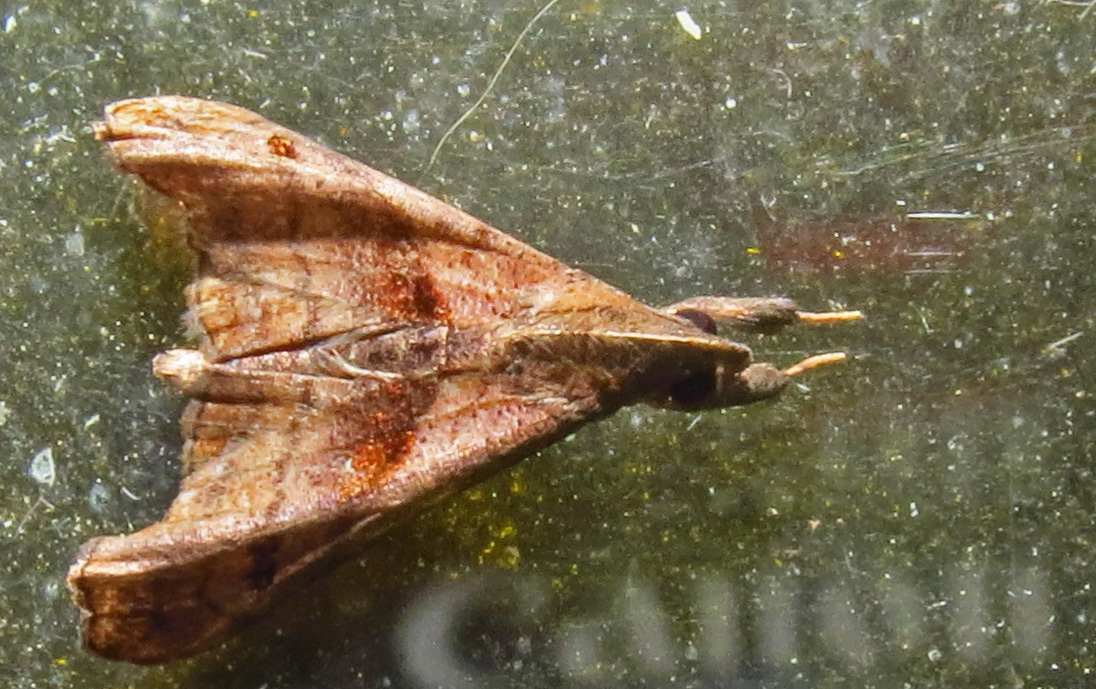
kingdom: Animalia
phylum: Arthropoda
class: Insecta
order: Lepidoptera
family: Erebidae
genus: Palthis
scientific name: Palthis angulalis
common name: Dark-spotted palthis moth
